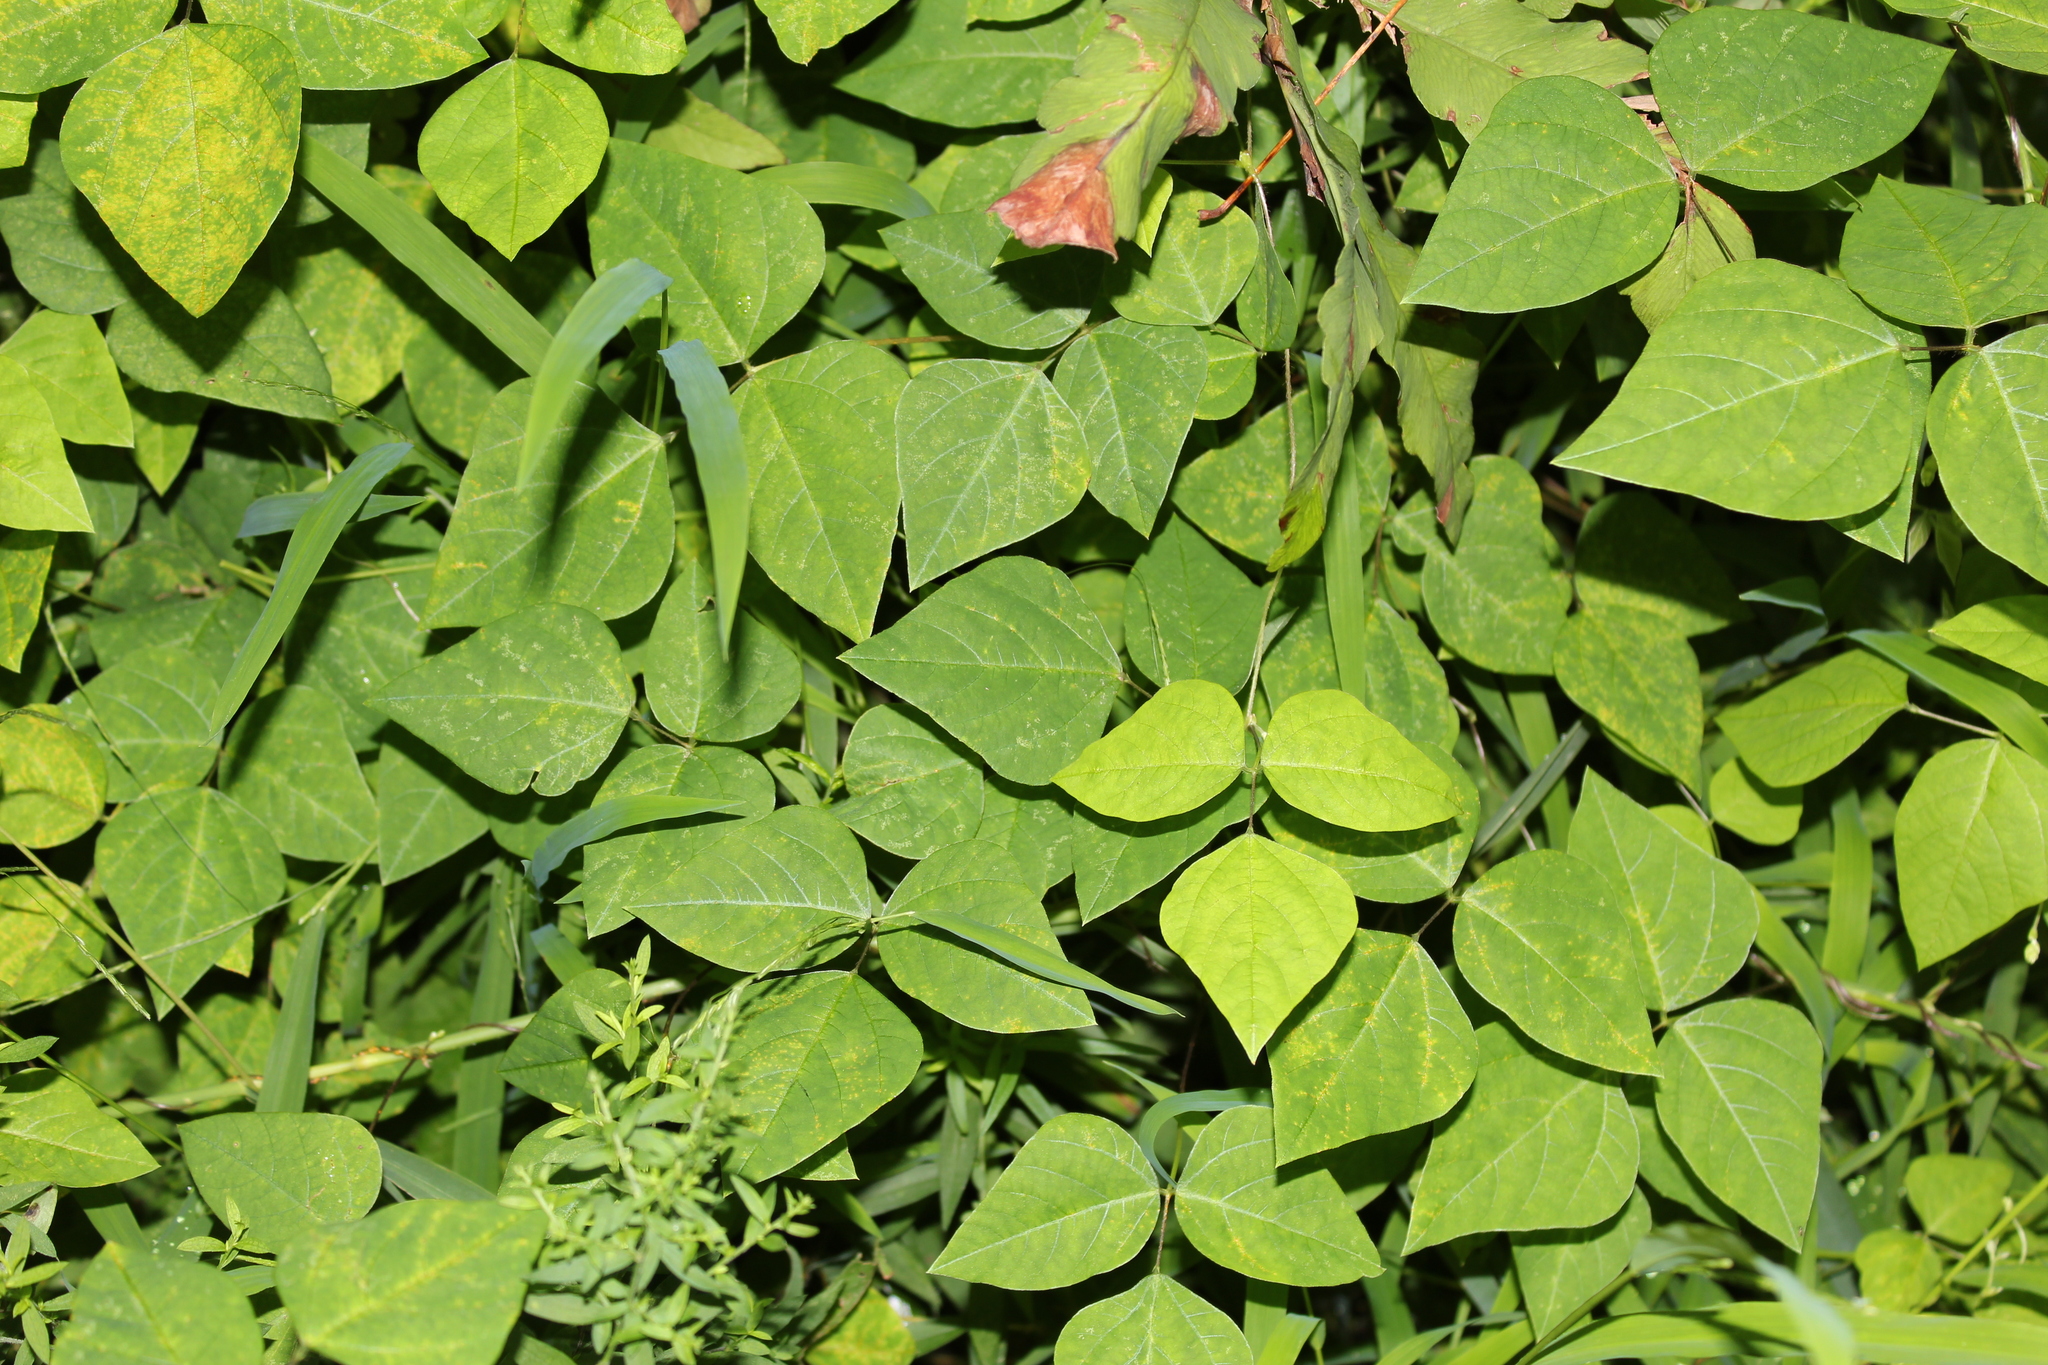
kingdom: Plantae
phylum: Tracheophyta
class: Magnoliopsida
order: Fabales
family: Fabaceae
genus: Amphicarpaea
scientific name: Amphicarpaea bracteata
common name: American hog peanut
